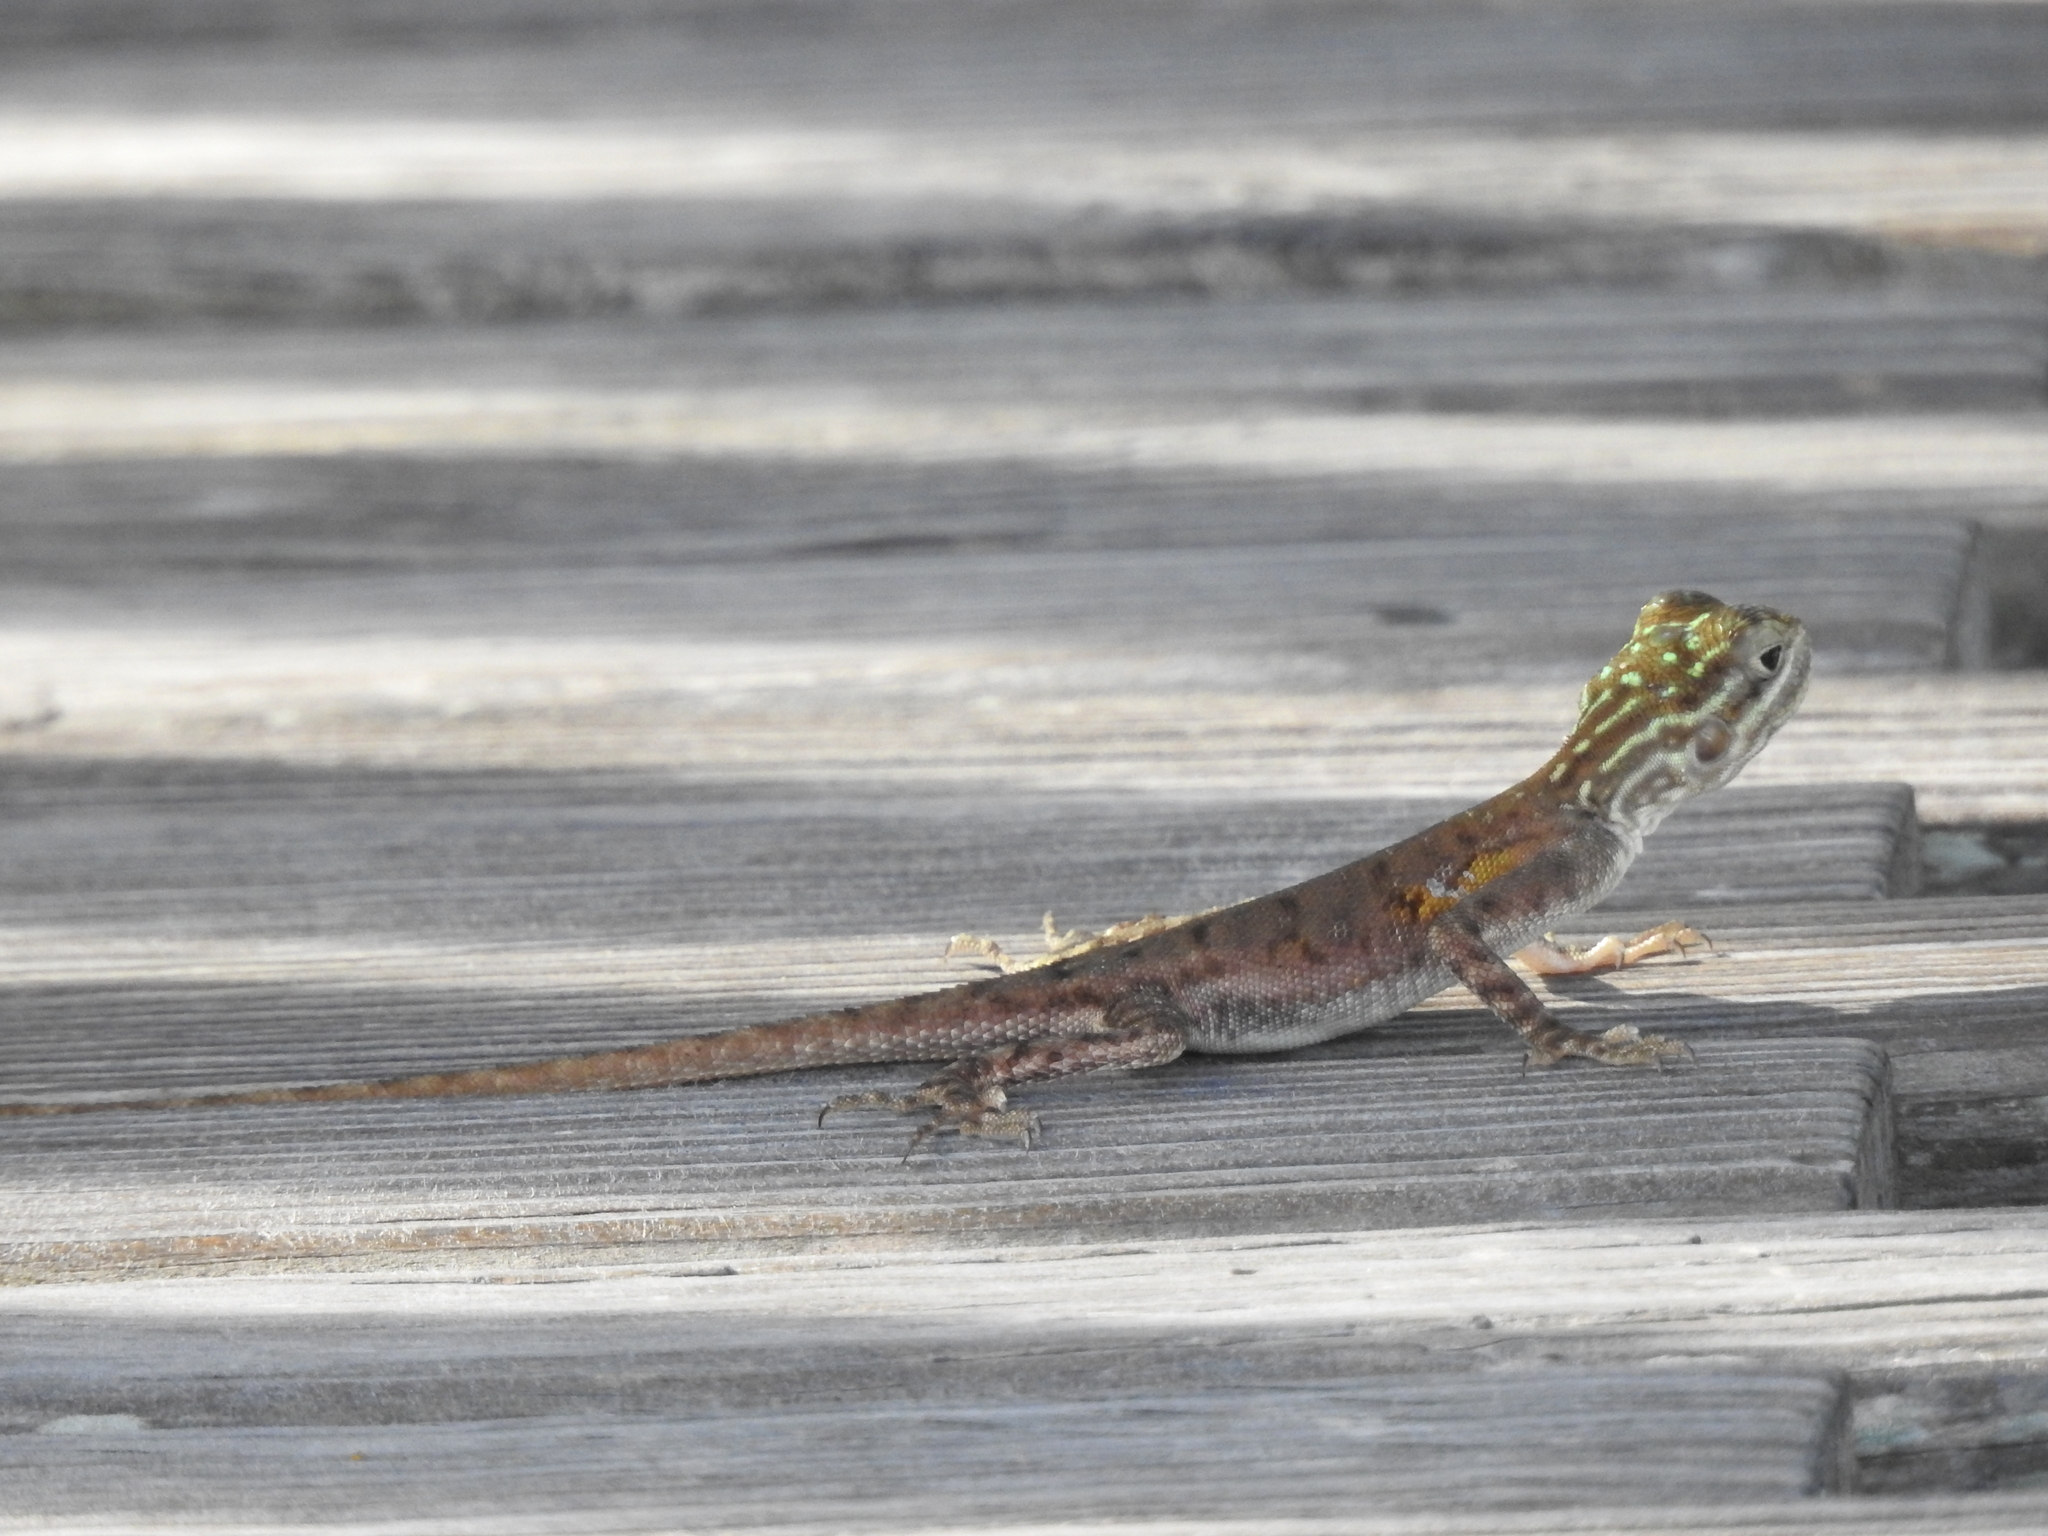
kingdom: Animalia
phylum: Chordata
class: Squamata
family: Agamidae
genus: Agama
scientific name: Agama picticauda
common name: Red-headed agama
